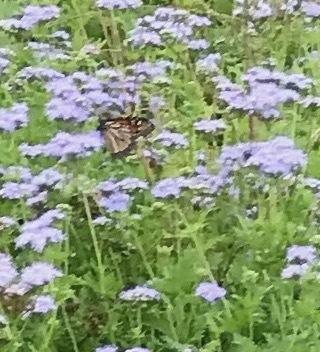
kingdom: Animalia
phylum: Arthropoda
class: Insecta
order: Lepidoptera
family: Nymphalidae
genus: Danaus
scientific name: Danaus plexippus
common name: Monarch
